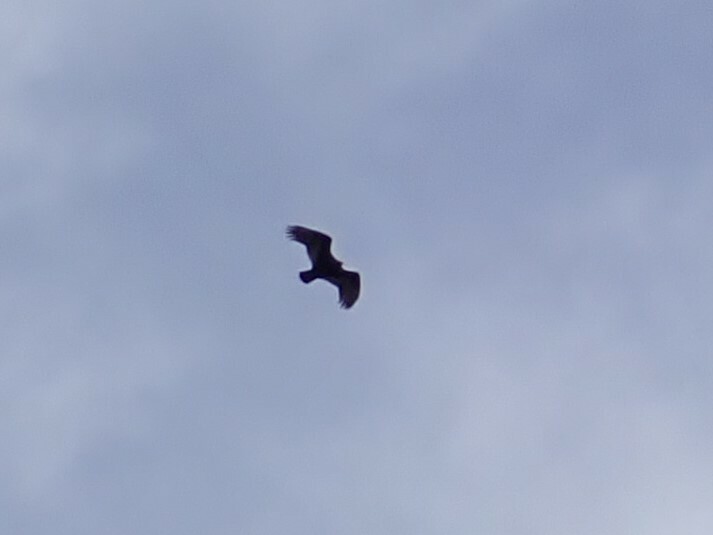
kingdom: Animalia
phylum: Chordata
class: Aves
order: Accipitriformes
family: Cathartidae
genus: Cathartes
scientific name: Cathartes aura
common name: Turkey vulture
